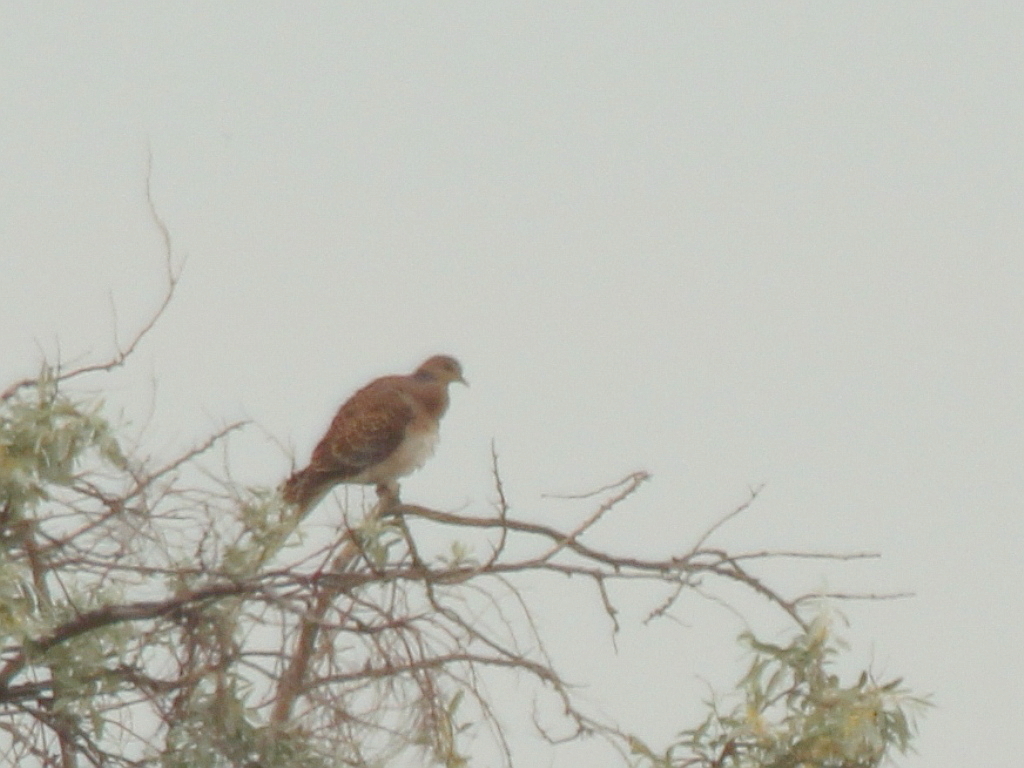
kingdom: Animalia
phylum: Chordata
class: Aves
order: Columbiformes
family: Columbidae
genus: Streptopelia
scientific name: Streptopelia orientalis
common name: Oriental turtle dove
